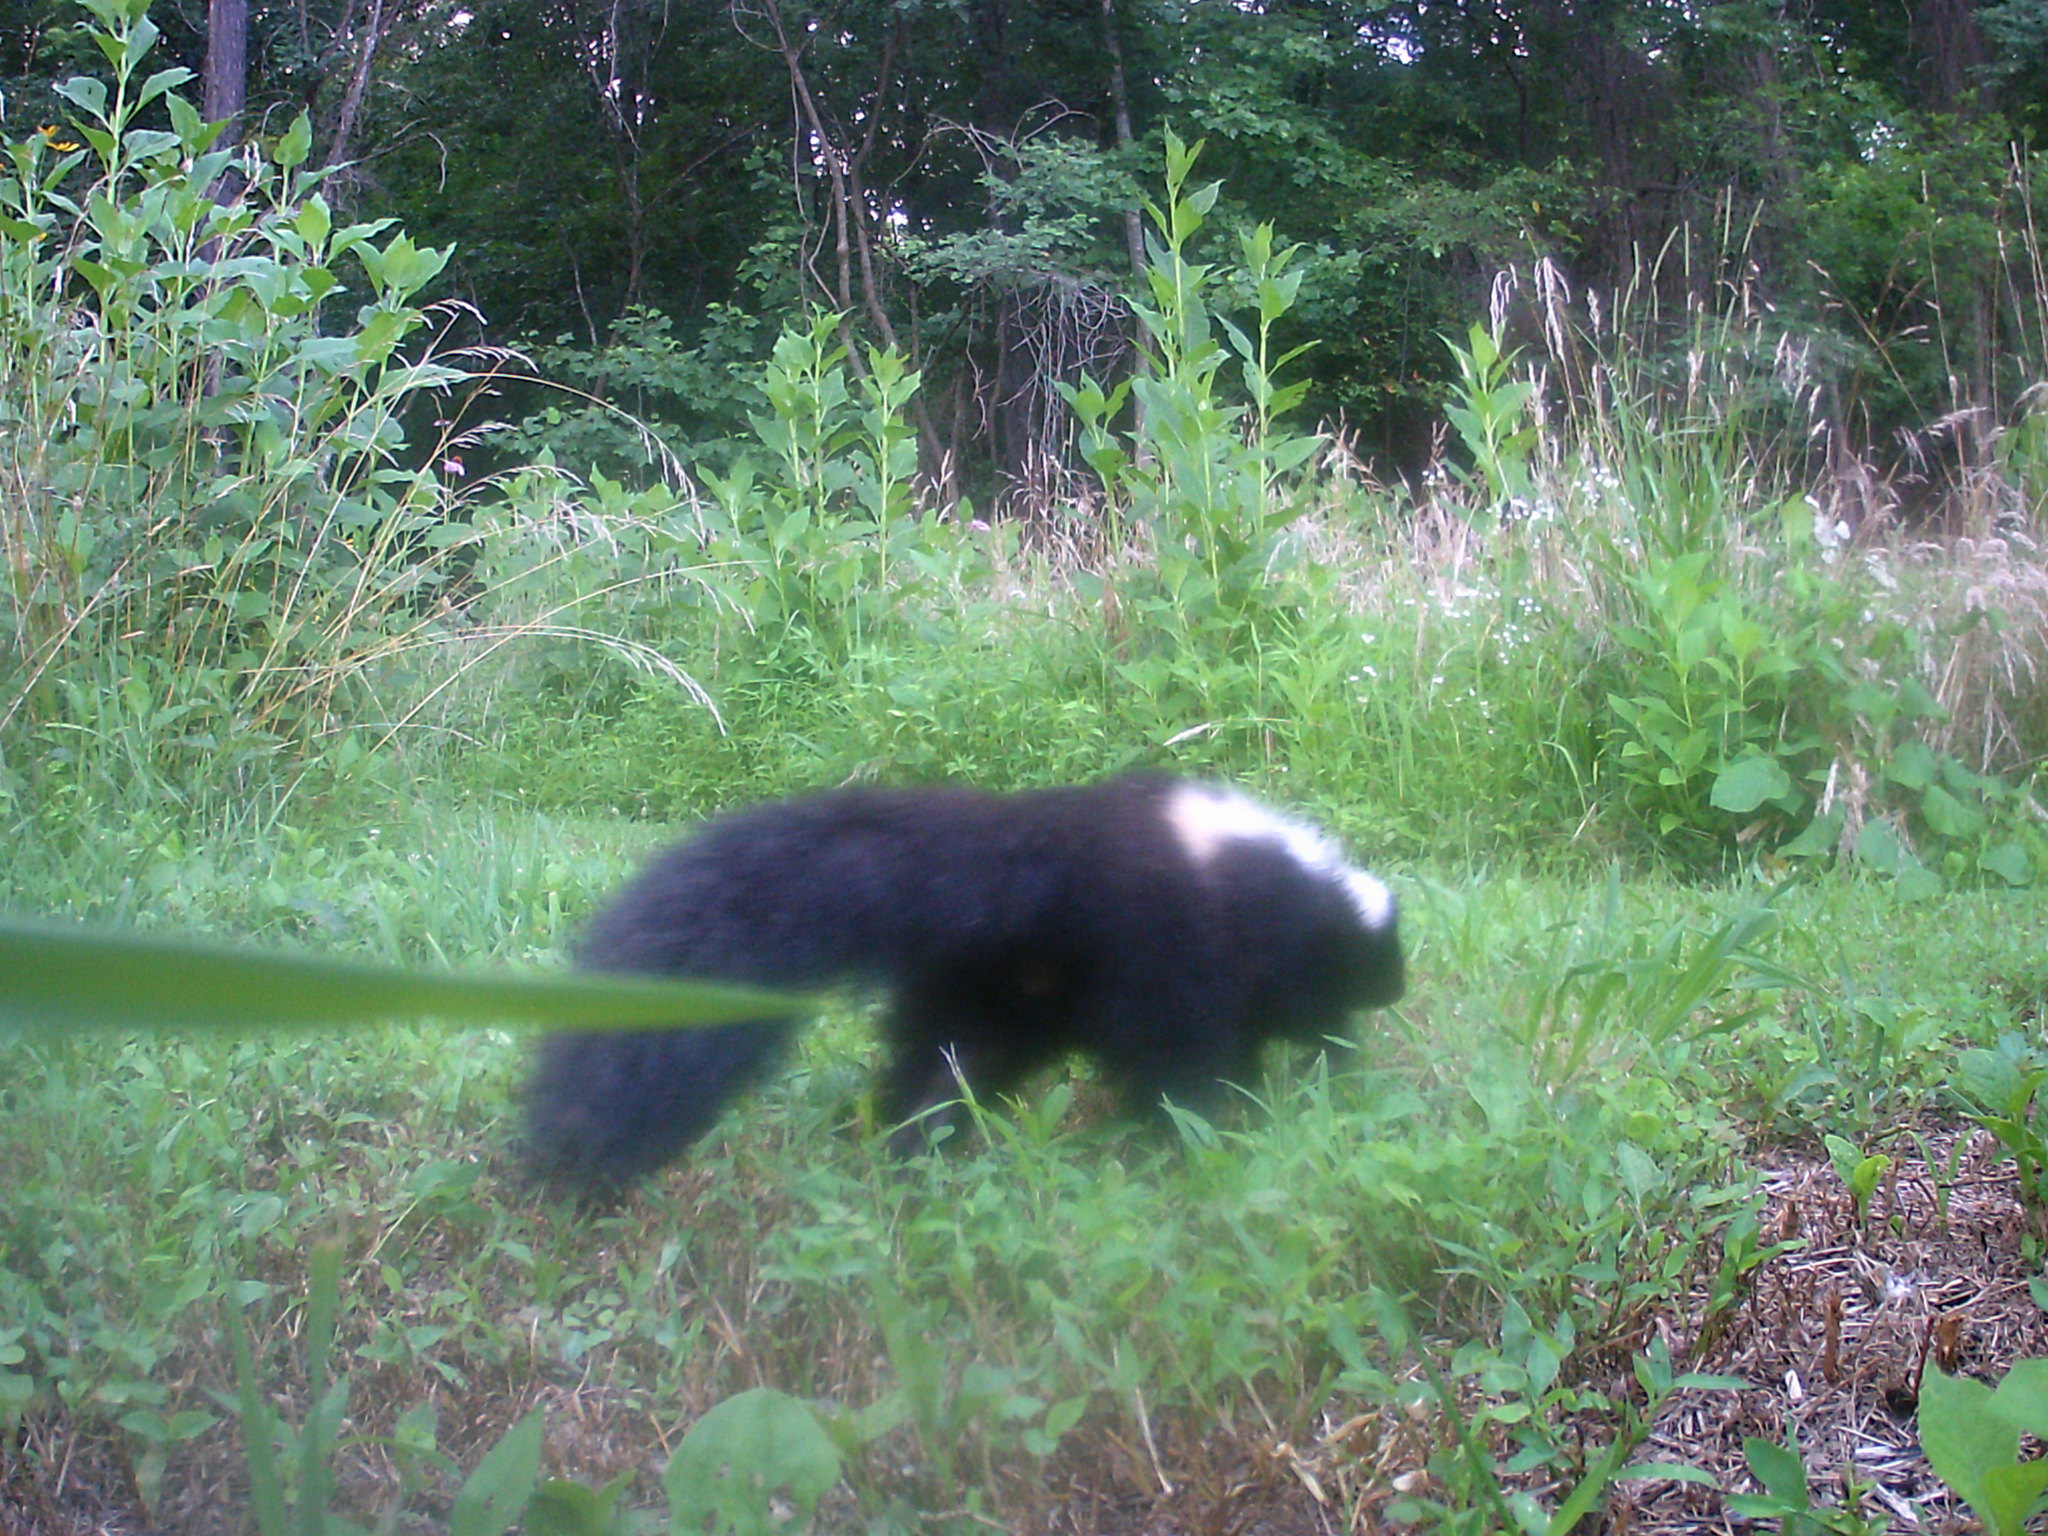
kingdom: Animalia
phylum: Chordata
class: Mammalia
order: Carnivora
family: Mephitidae
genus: Mephitis
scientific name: Mephitis mephitis
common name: Striped skunk
